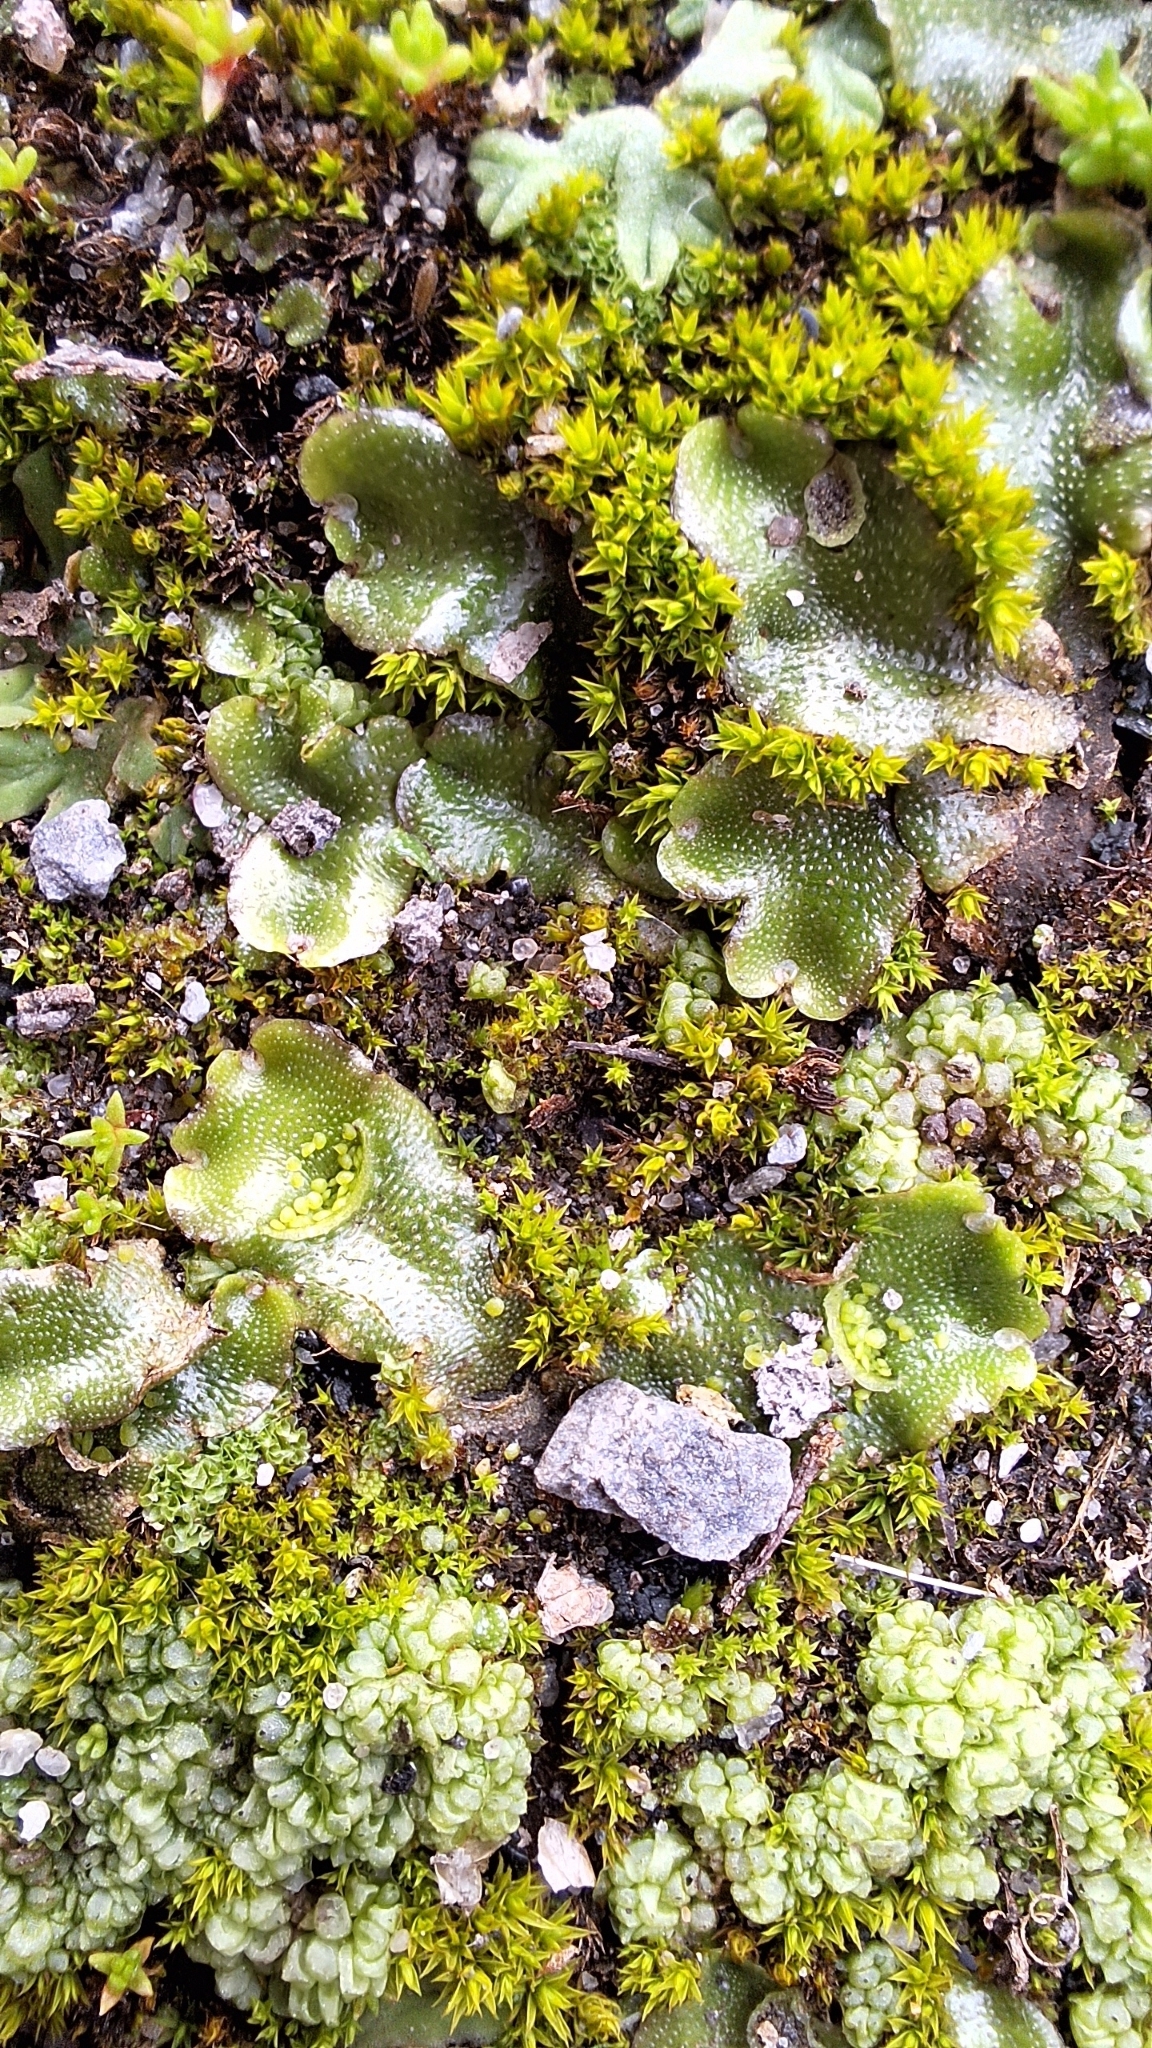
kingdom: Plantae
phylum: Marchantiophyta
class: Marchantiopsida
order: Lunulariales
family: Lunulariaceae
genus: Lunularia
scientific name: Lunularia cruciata
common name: Crescent-cup liverwort
